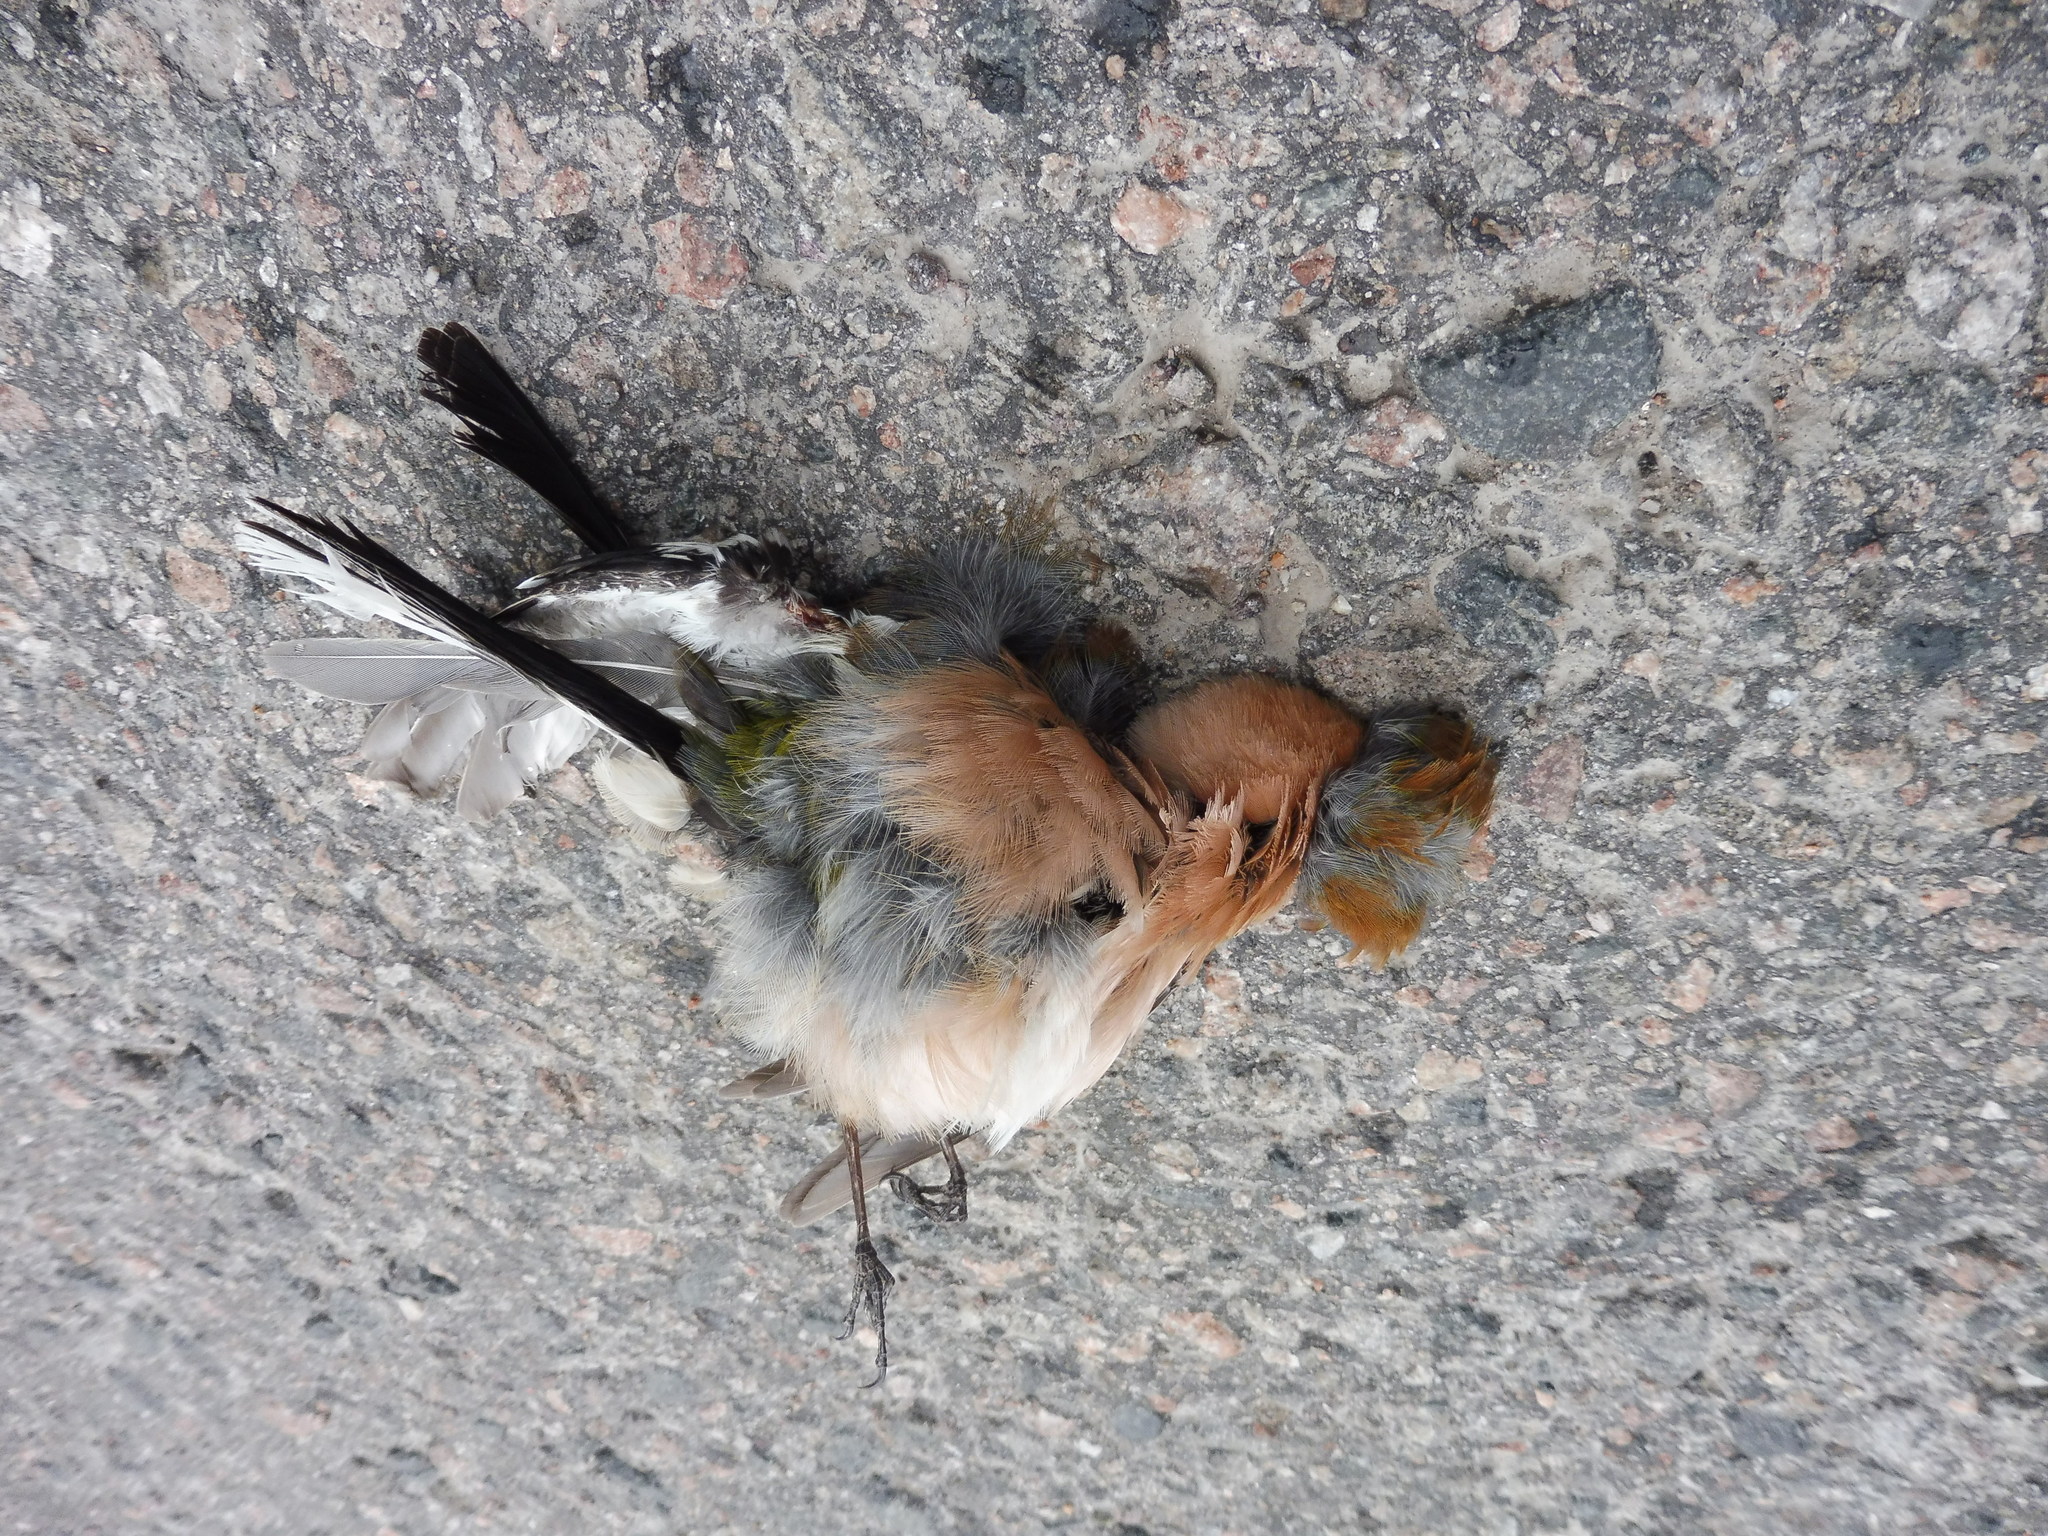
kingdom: Animalia
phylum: Chordata
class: Aves
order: Passeriformes
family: Fringillidae
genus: Fringilla
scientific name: Fringilla coelebs
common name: Common chaffinch
